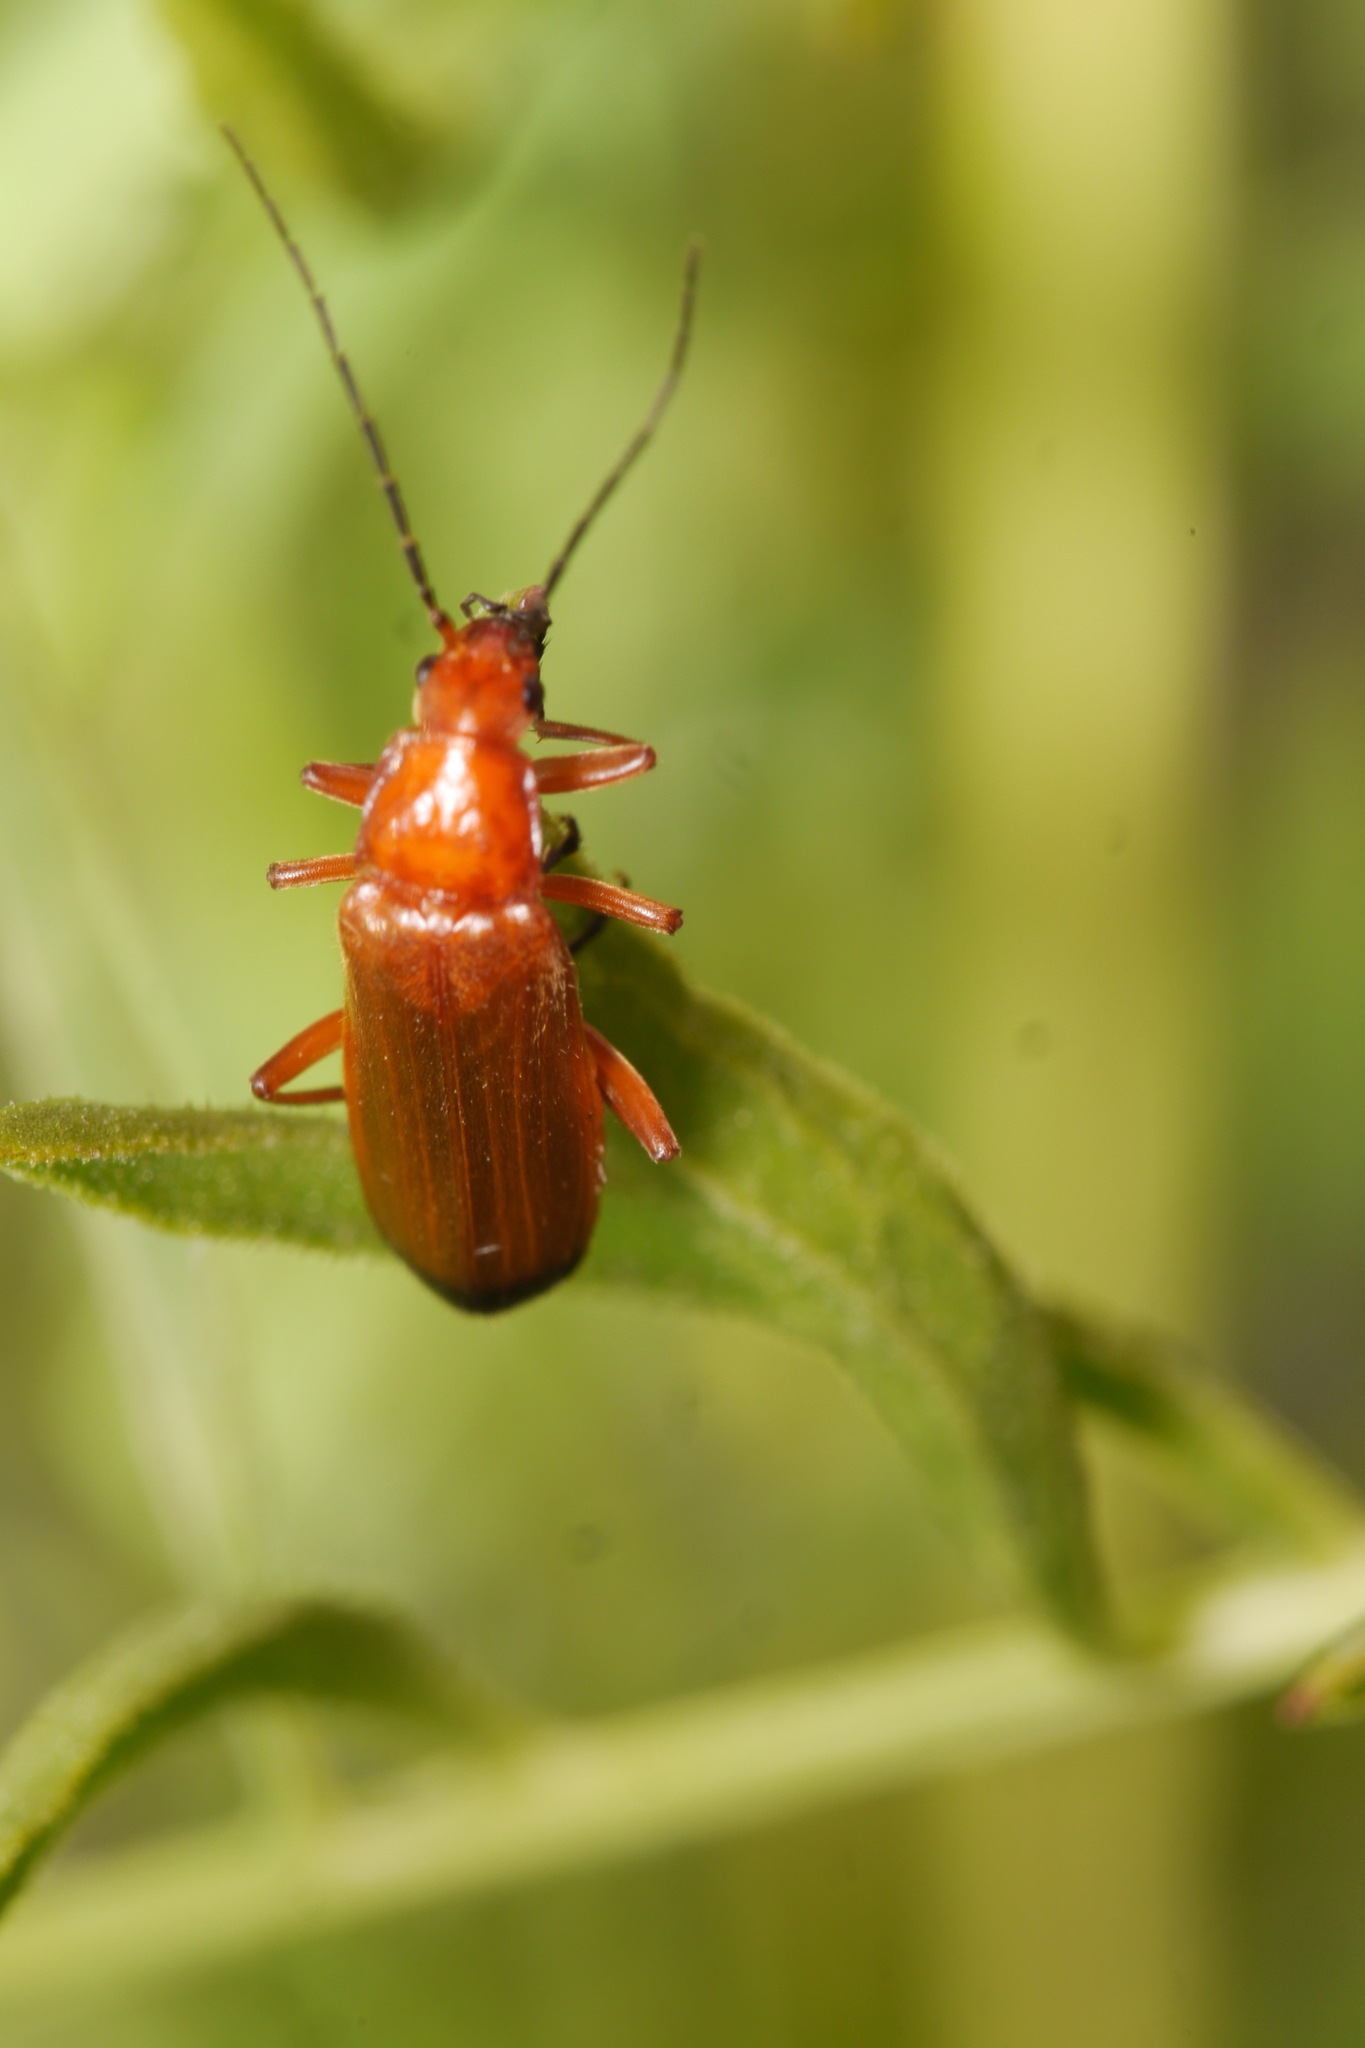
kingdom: Animalia
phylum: Arthropoda
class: Insecta
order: Coleoptera
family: Cantharidae
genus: Rhagonycha
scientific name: Rhagonycha fulva
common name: Common red soldier beetle
